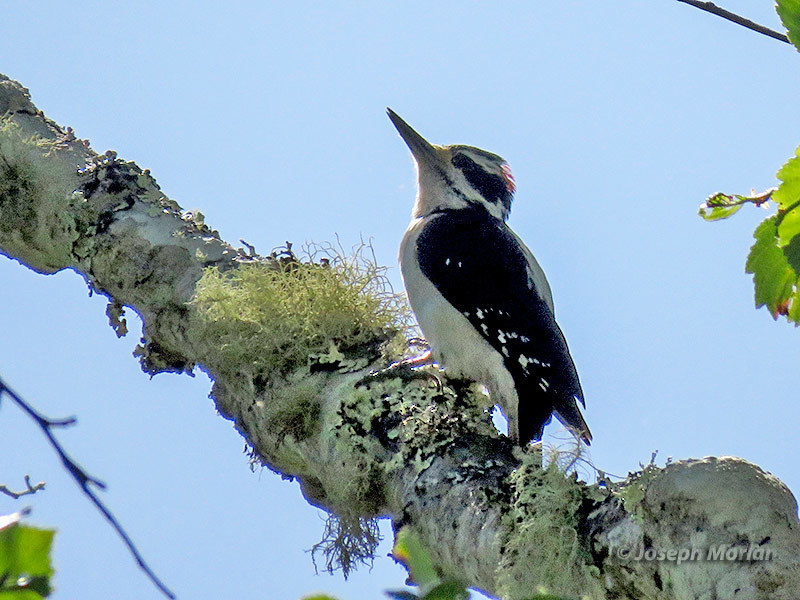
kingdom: Animalia
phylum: Chordata
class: Aves
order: Piciformes
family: Picidae
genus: Leuconotopicus
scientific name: Leuconotopicus villosus
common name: Hairy woodpecker
